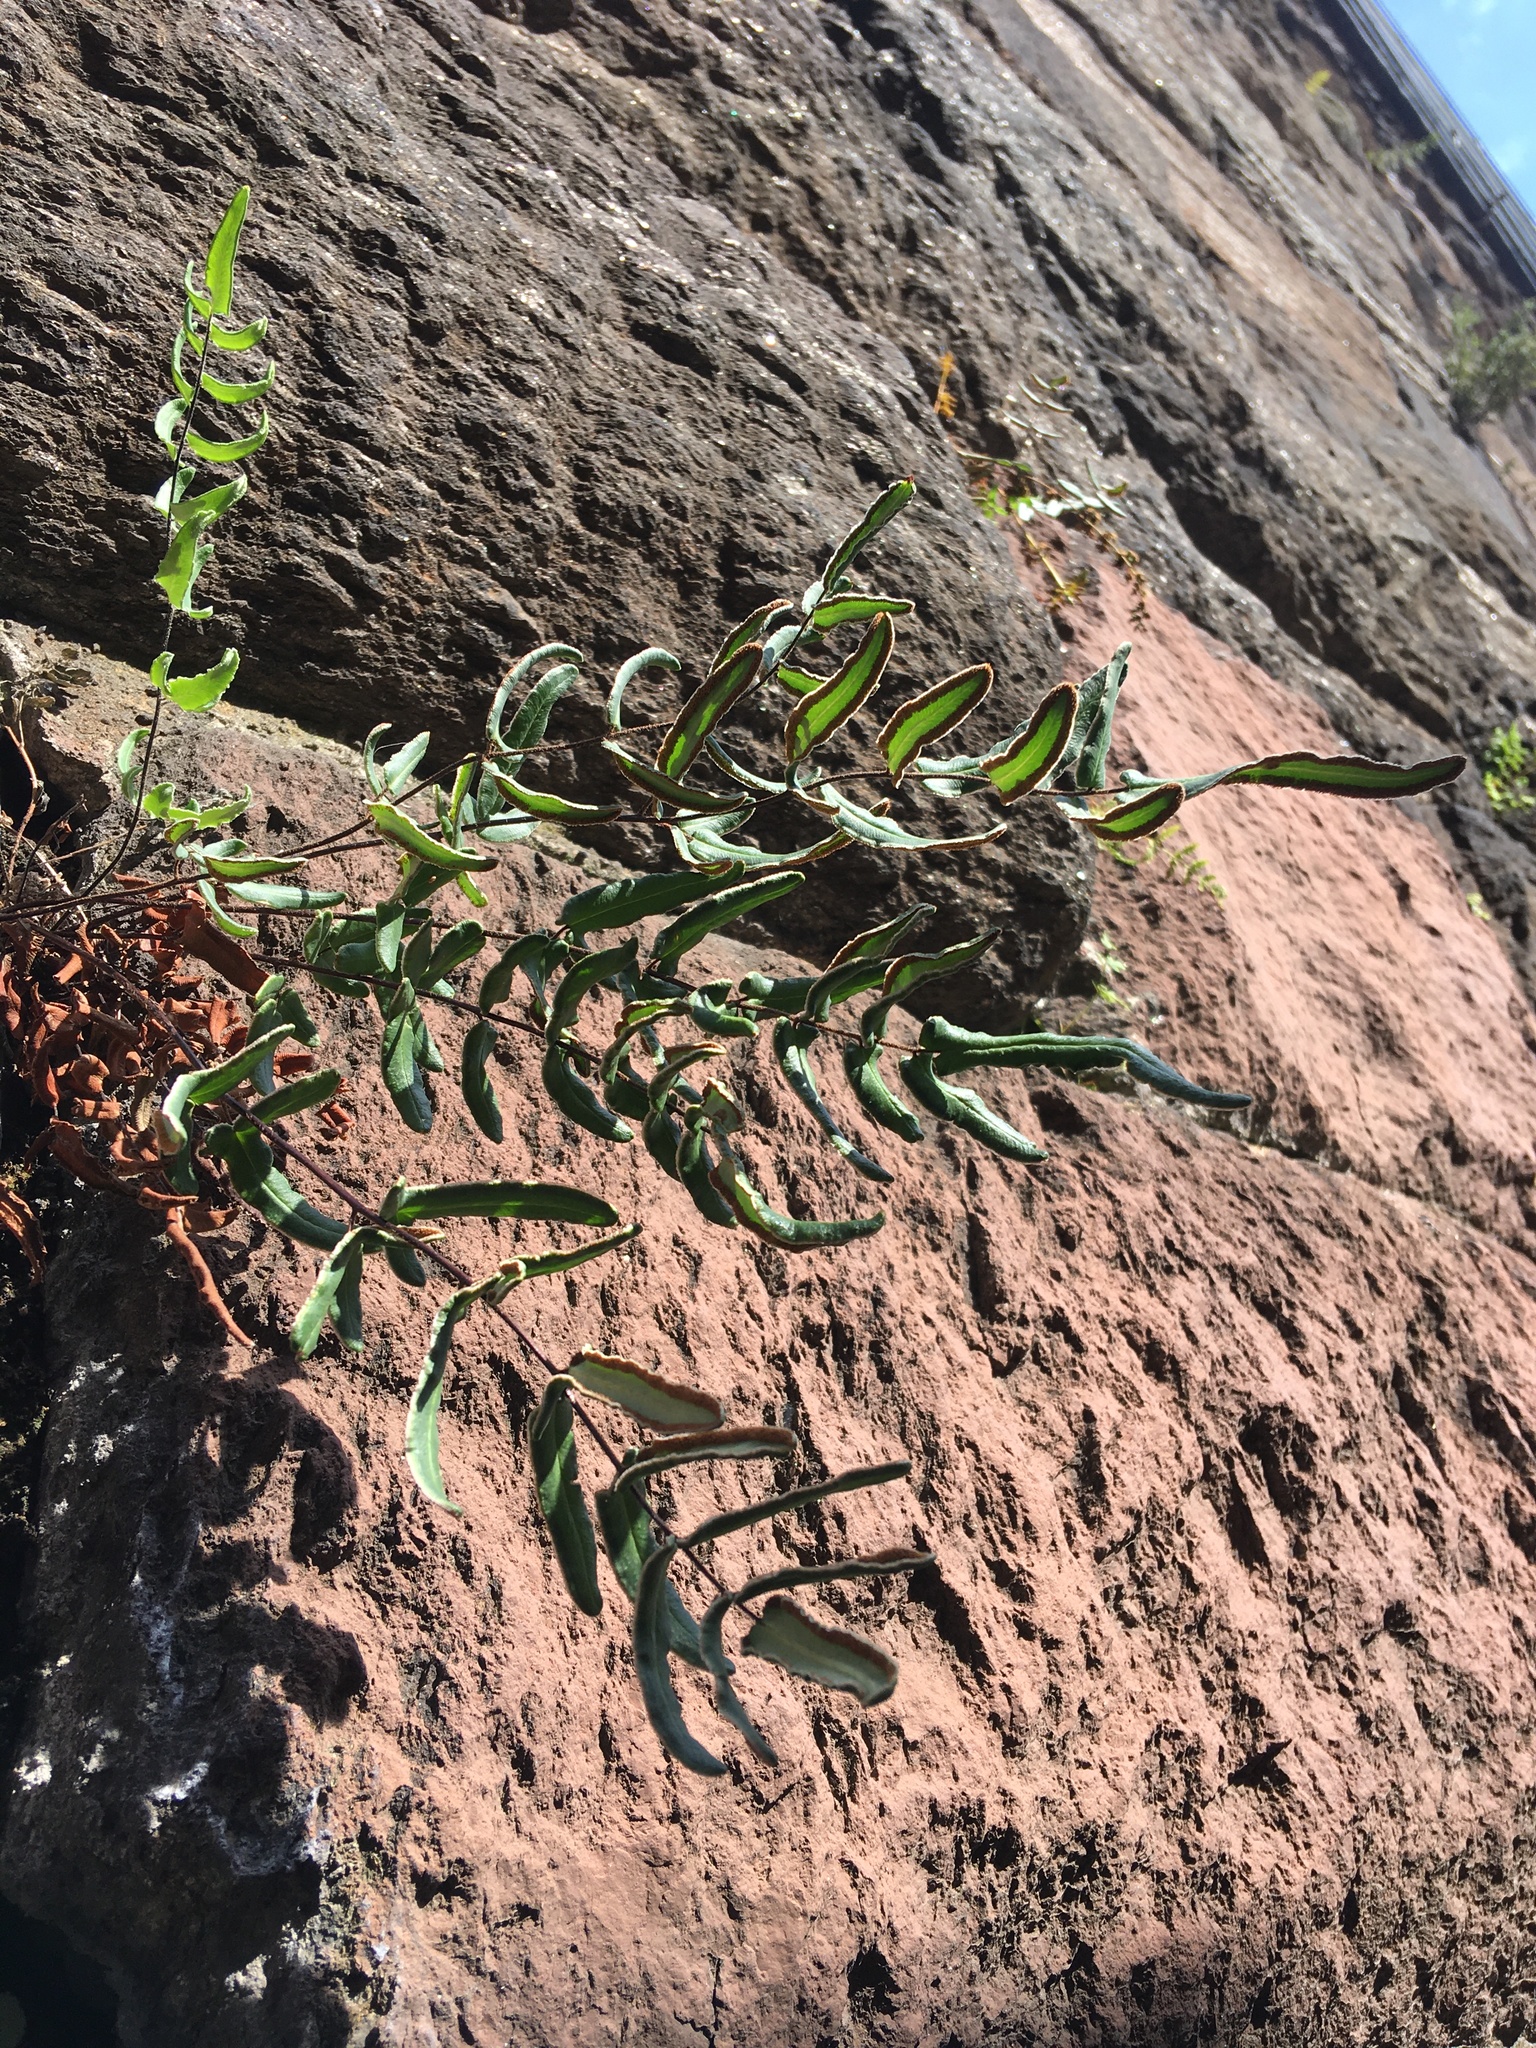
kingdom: Plantae
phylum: Tracheophyta
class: Polypodiopsida
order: Polypodiales
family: Pteridaceae
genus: Pellaea
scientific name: Pellaea atropurpurea
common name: Hairy cliffbrake
